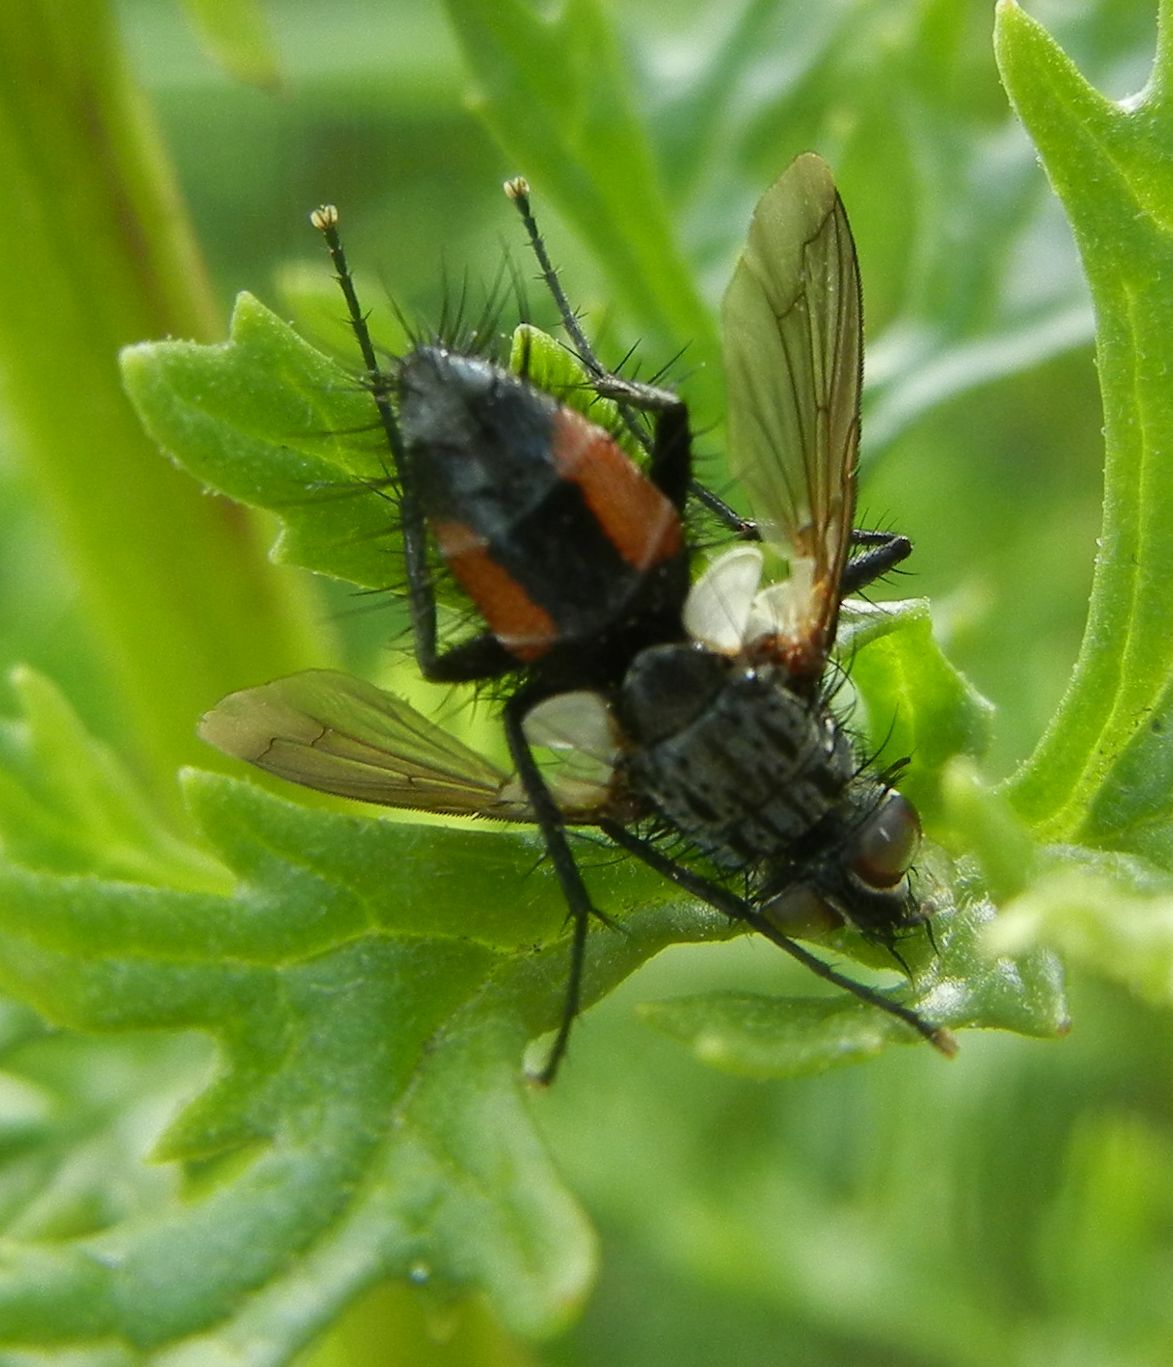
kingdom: Animalia
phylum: Arthropoda
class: Insecta
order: Diptera
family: Tachinidae
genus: Eriothrix
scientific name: Eriothrix rufomaculatus
